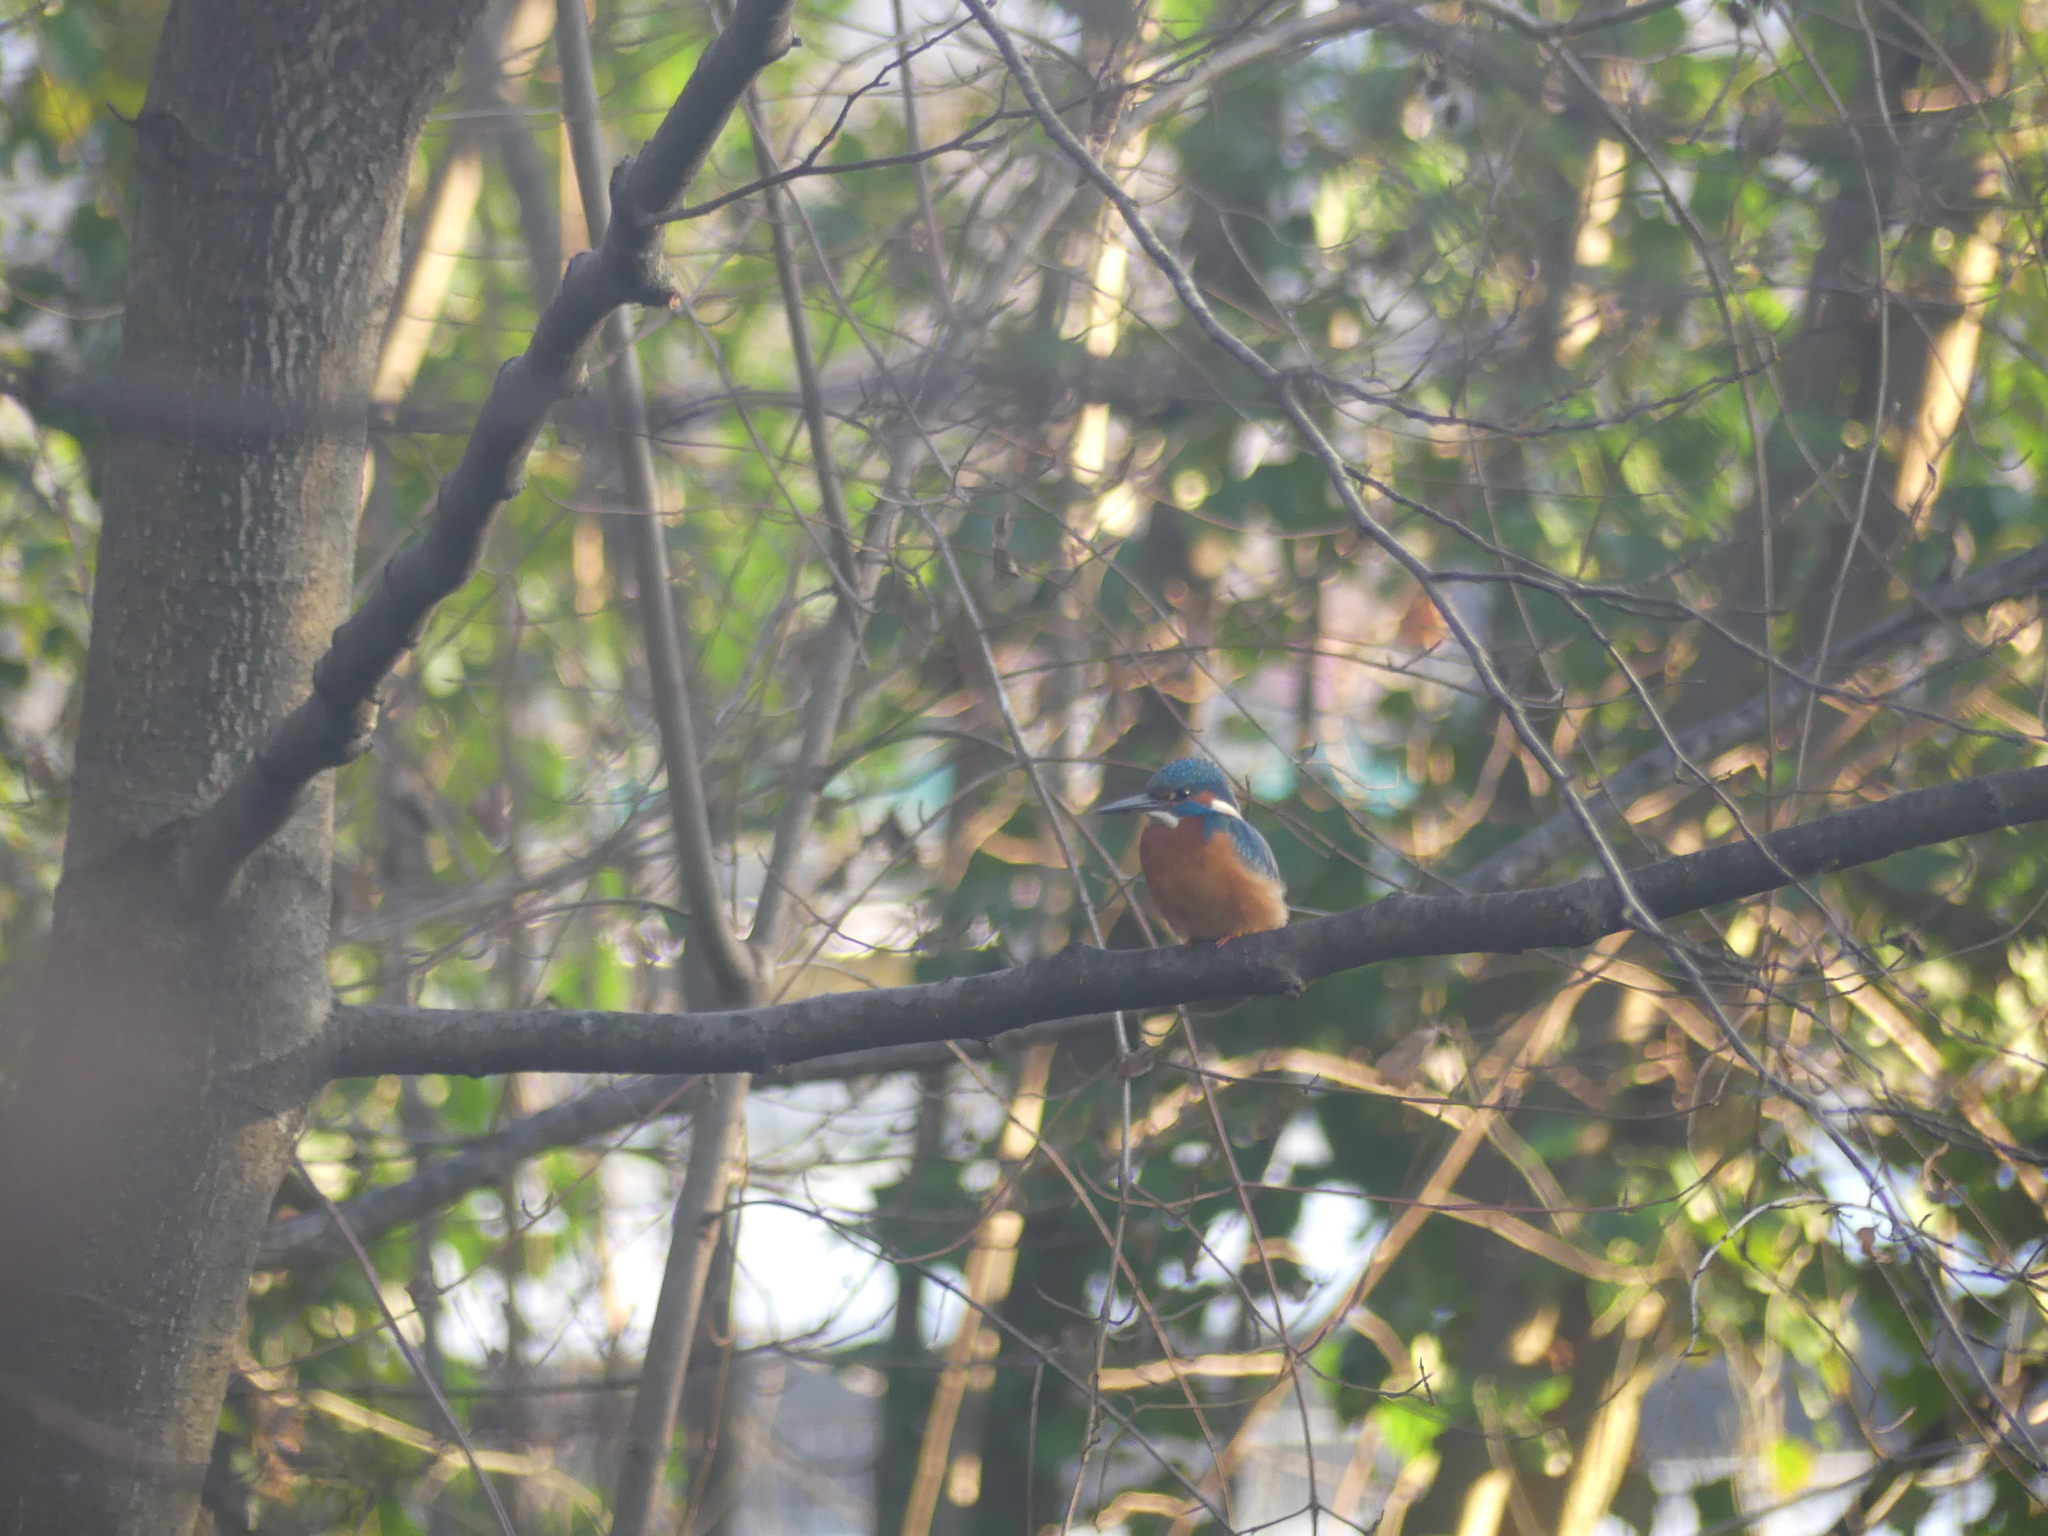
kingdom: Animalia
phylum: Chordata
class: Aves
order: Coraciiformes
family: Alcedinidae
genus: Alcedo
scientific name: Alcedo atthis
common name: Common kingfisher
